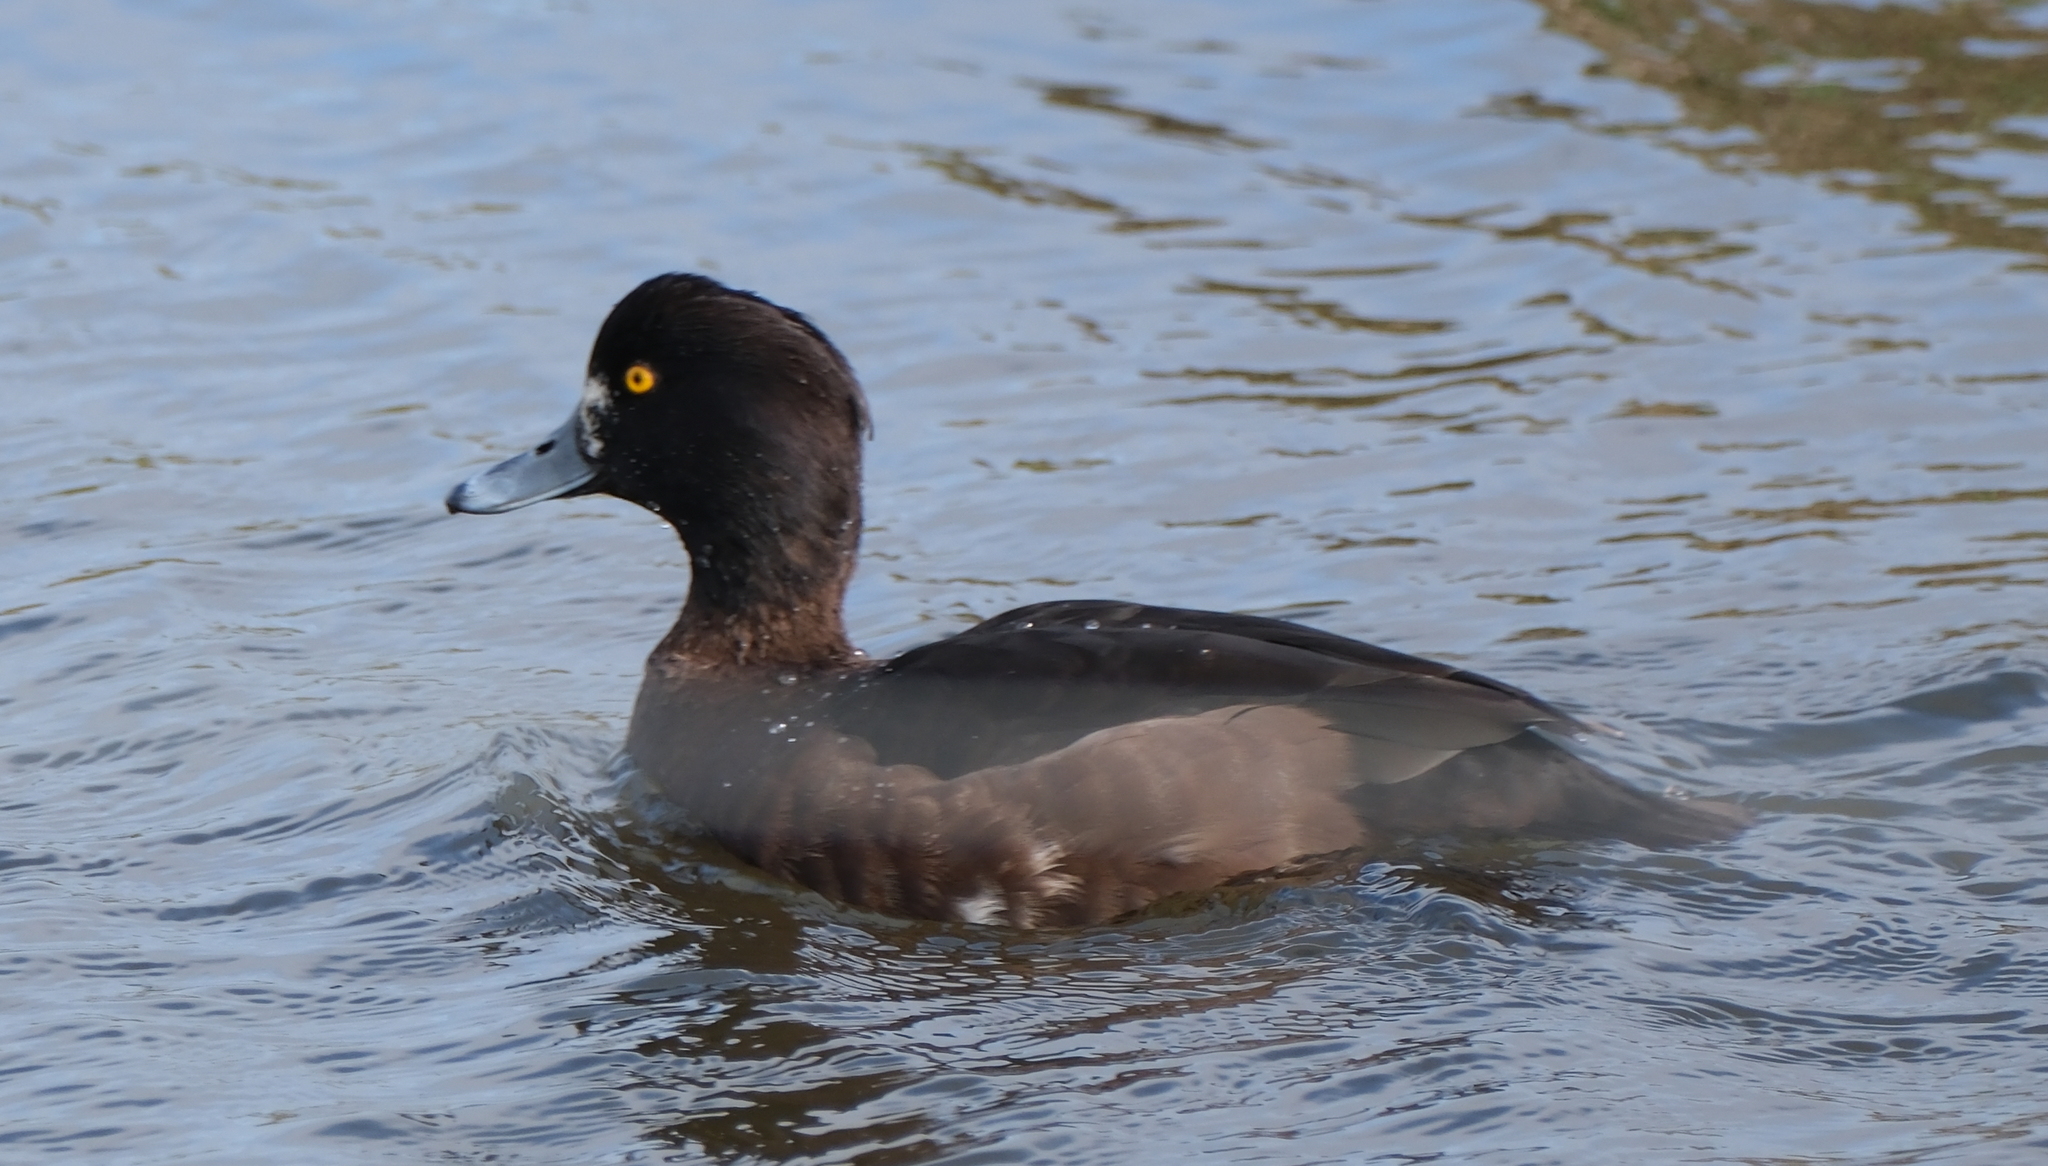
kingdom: Animalia
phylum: Chordata
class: Aves
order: Anseriformes
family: Anatidae
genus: Aythya
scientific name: Aythya fuligula
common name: Tufted duck
